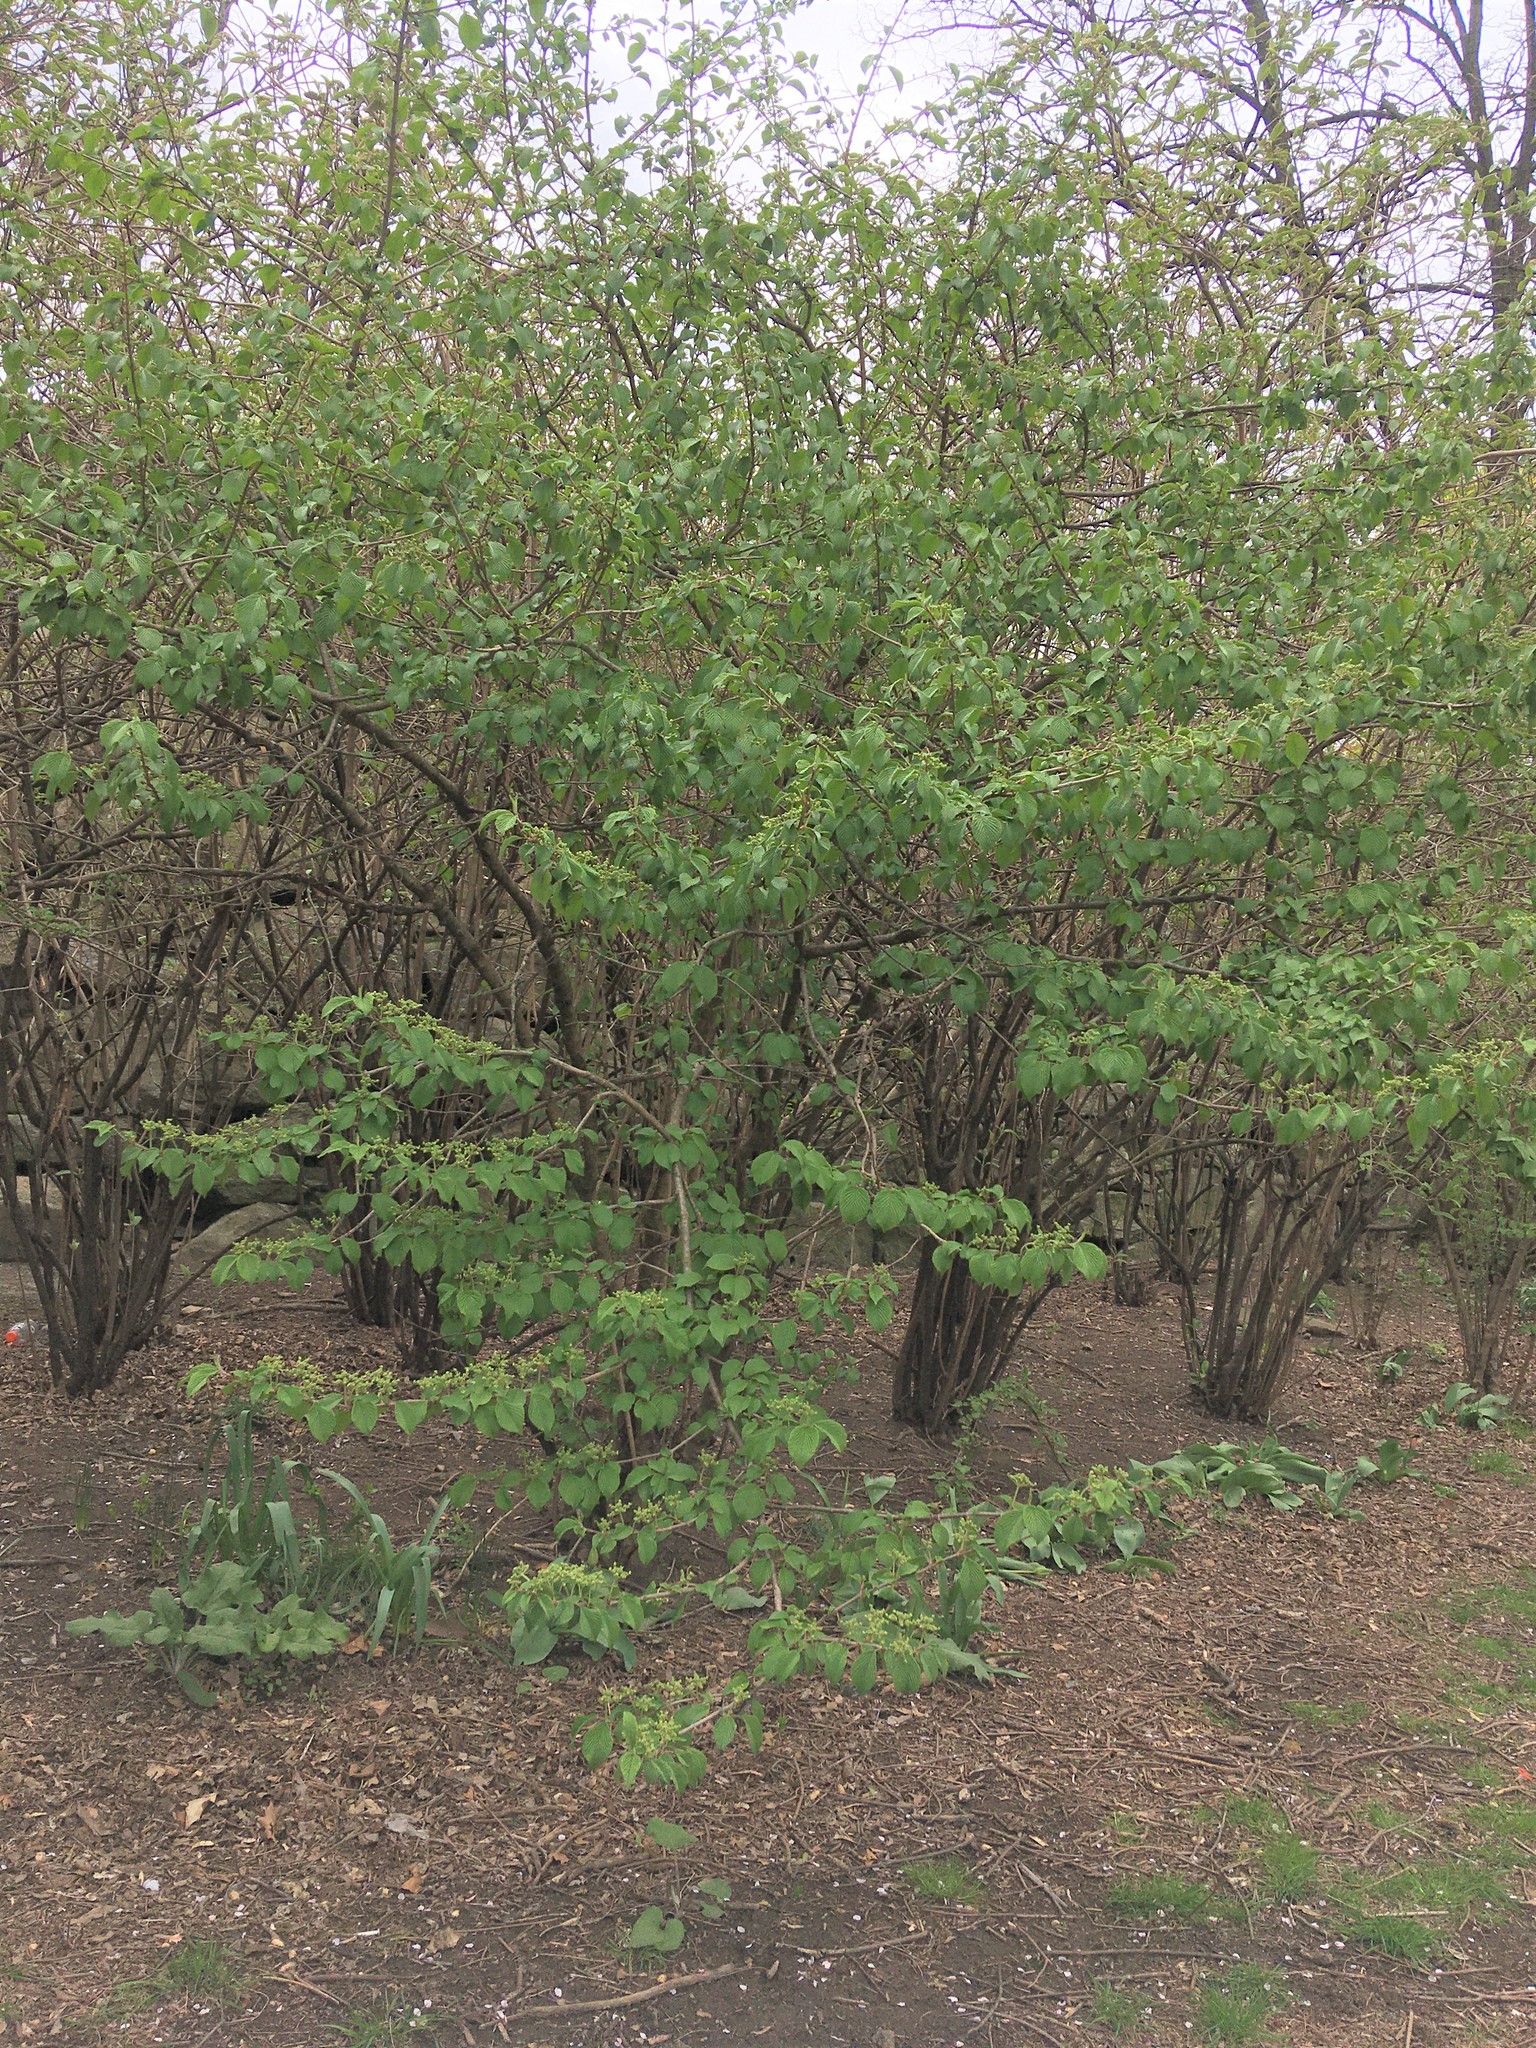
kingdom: Plantae
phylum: Tracheophyta
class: Magnoliopsida
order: Dipsacales
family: Viburnaceae
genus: Viburnum
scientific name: Viburnum plicatum
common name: Japanese snowball
